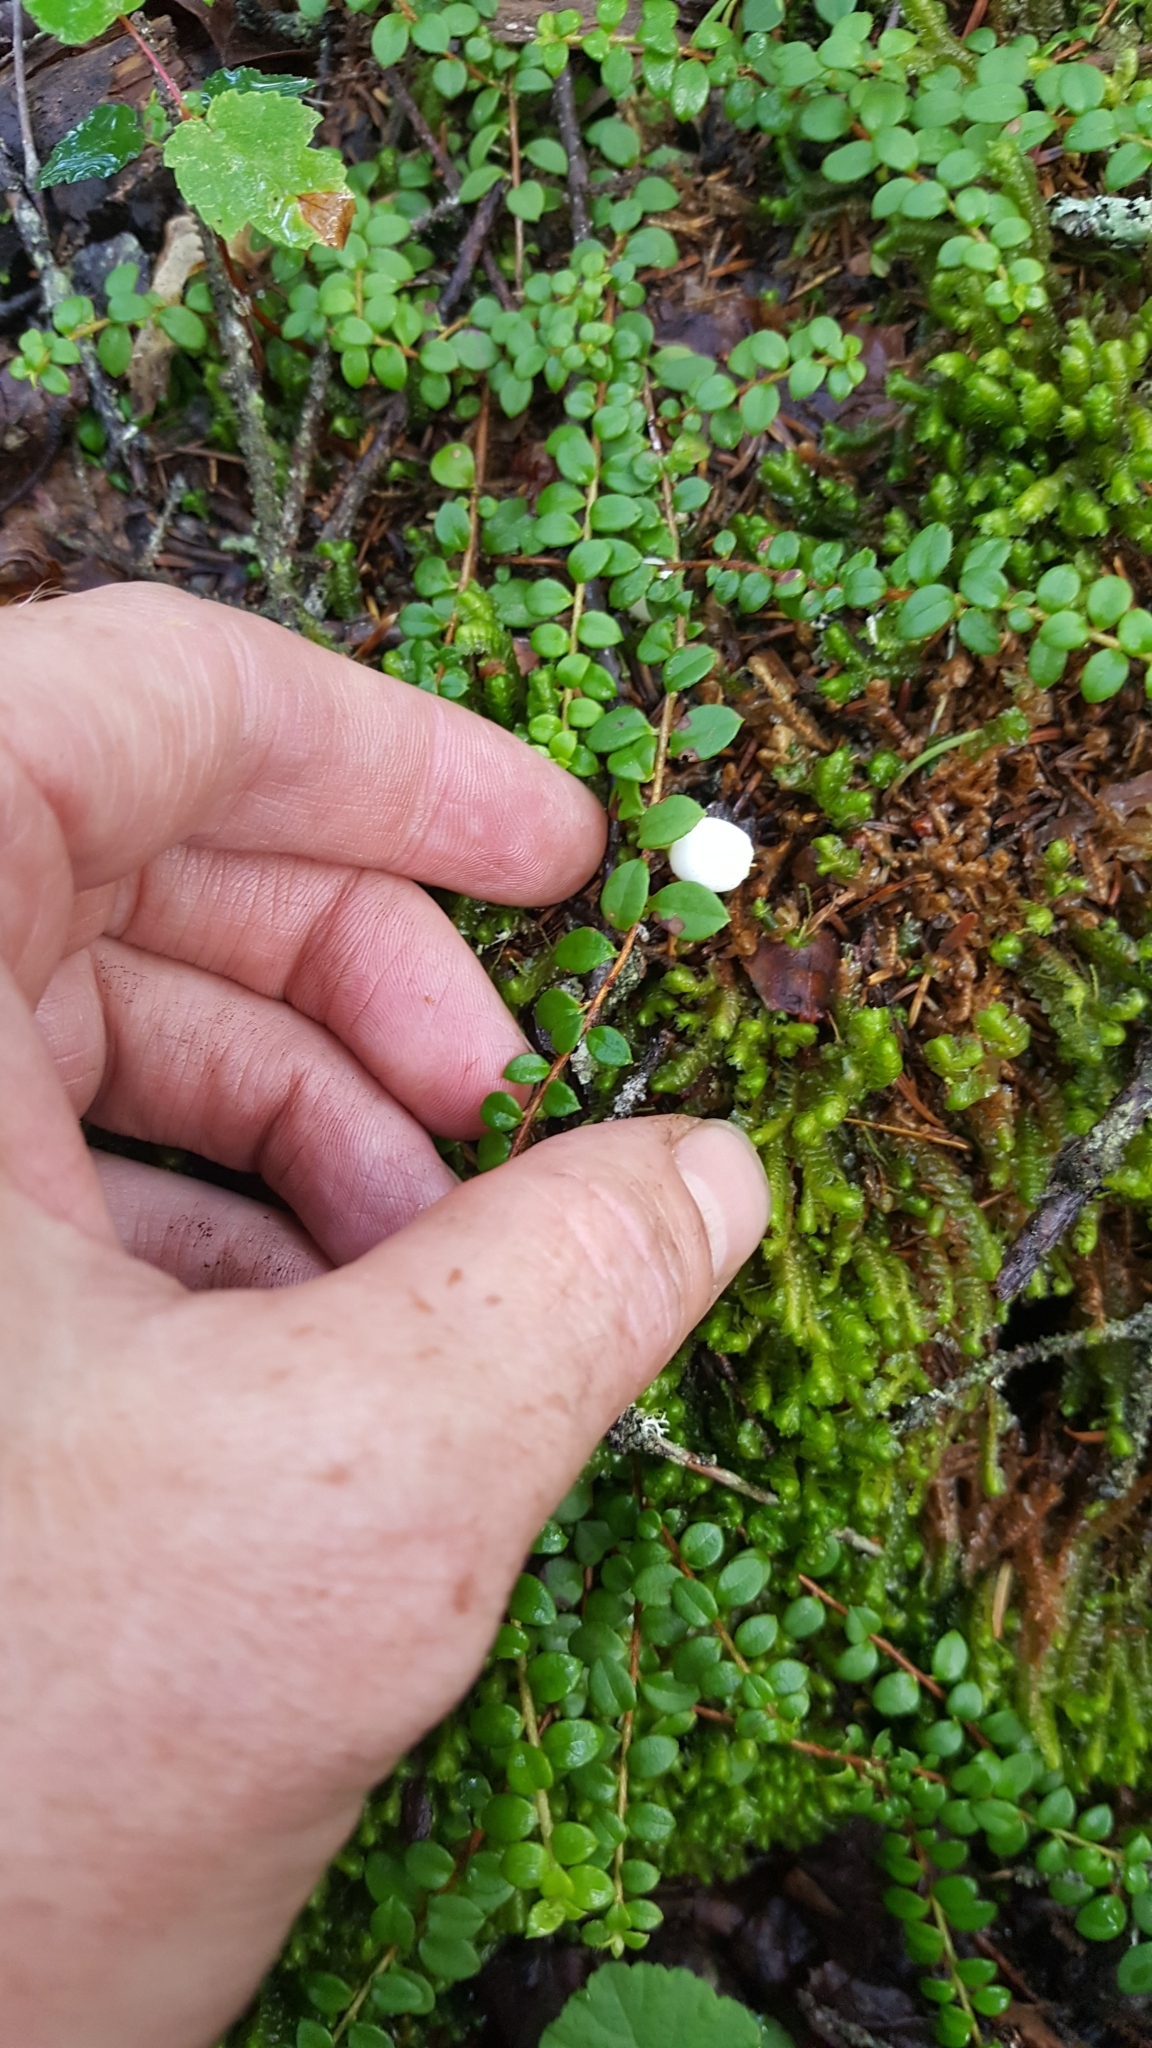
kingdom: Plantae
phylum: Tracheophyta
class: Magnoliopsida
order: Ericales
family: Ericaceae
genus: Gaultheria
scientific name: Gaultheria hispidula
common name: Cancer wintergreen
